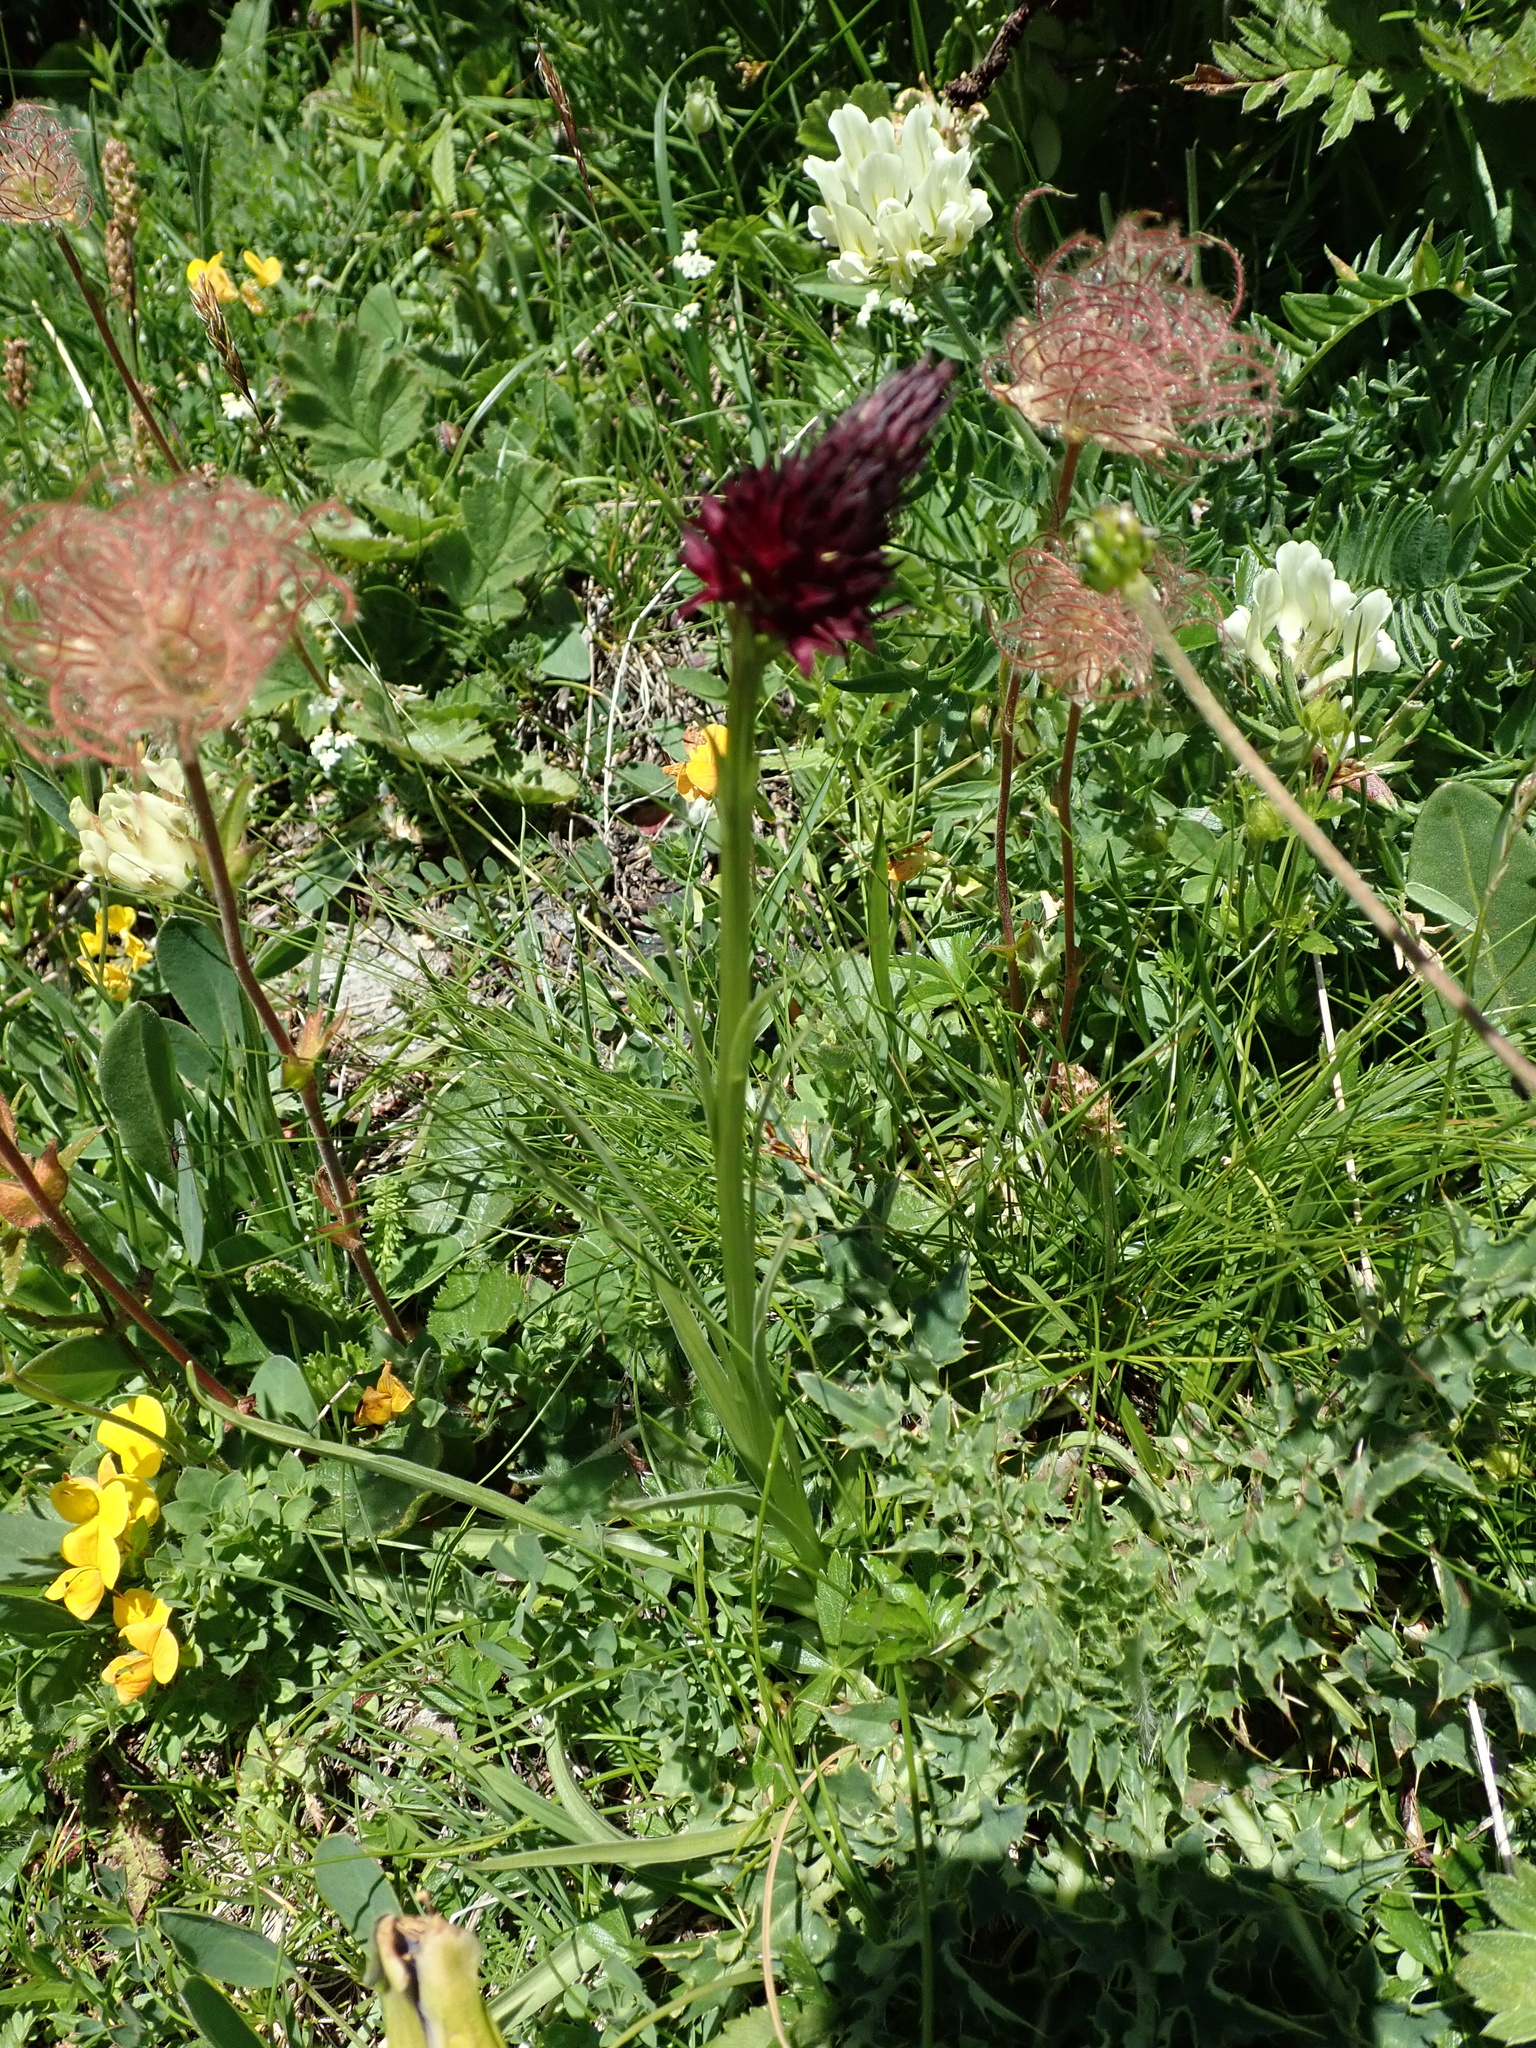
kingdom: Plantae
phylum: Tracheophyta
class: Liliopsida
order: Asparagales
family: Orchidaceae
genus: Gymnadenia
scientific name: Gymnadenia rhellicani
